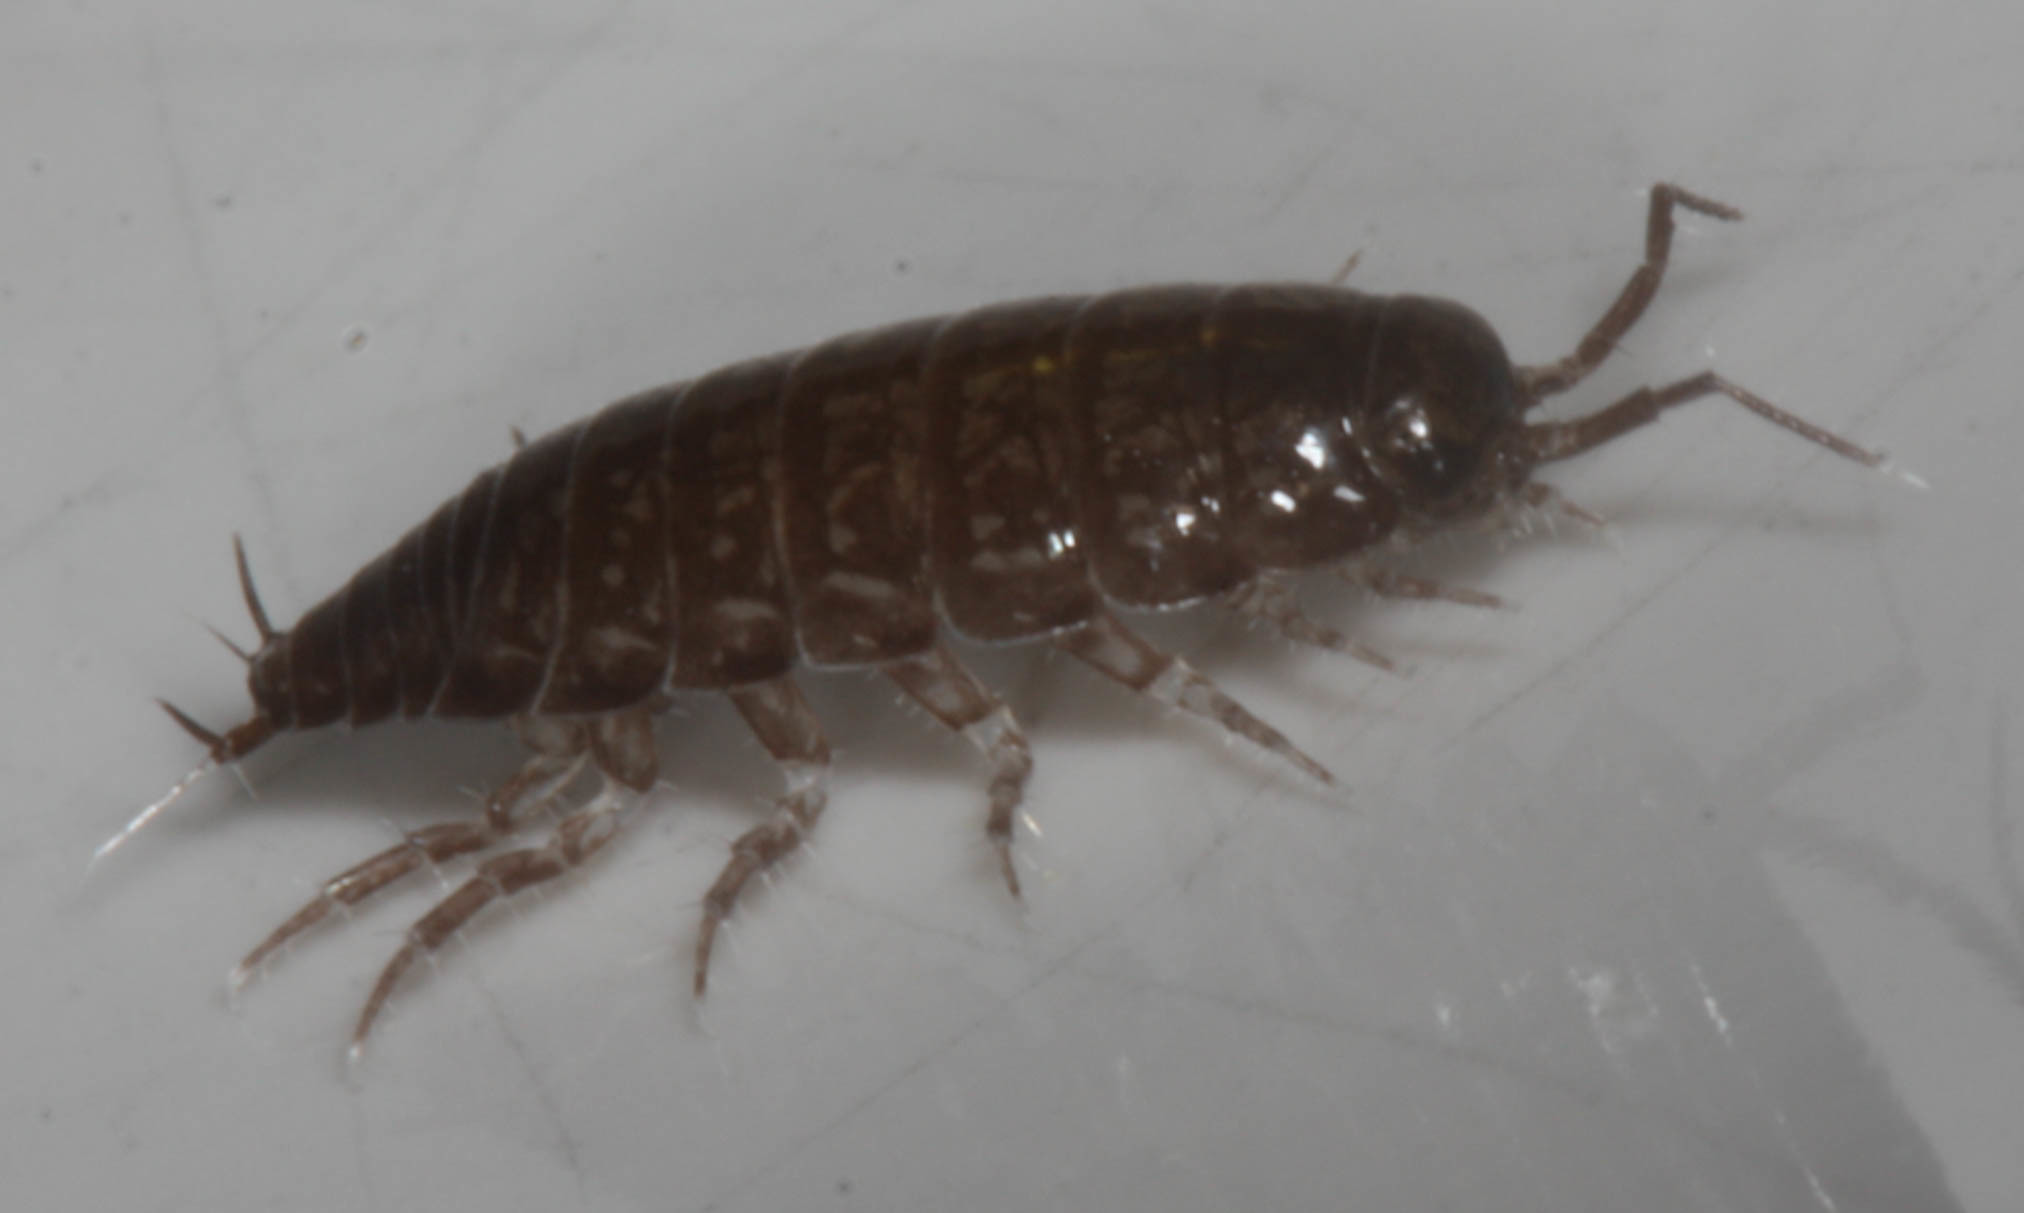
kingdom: Animalia
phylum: Arthropoda
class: Malacostraca
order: Isopoda
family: Ligiidae
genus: Ligidium
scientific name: Ligidium gracile
